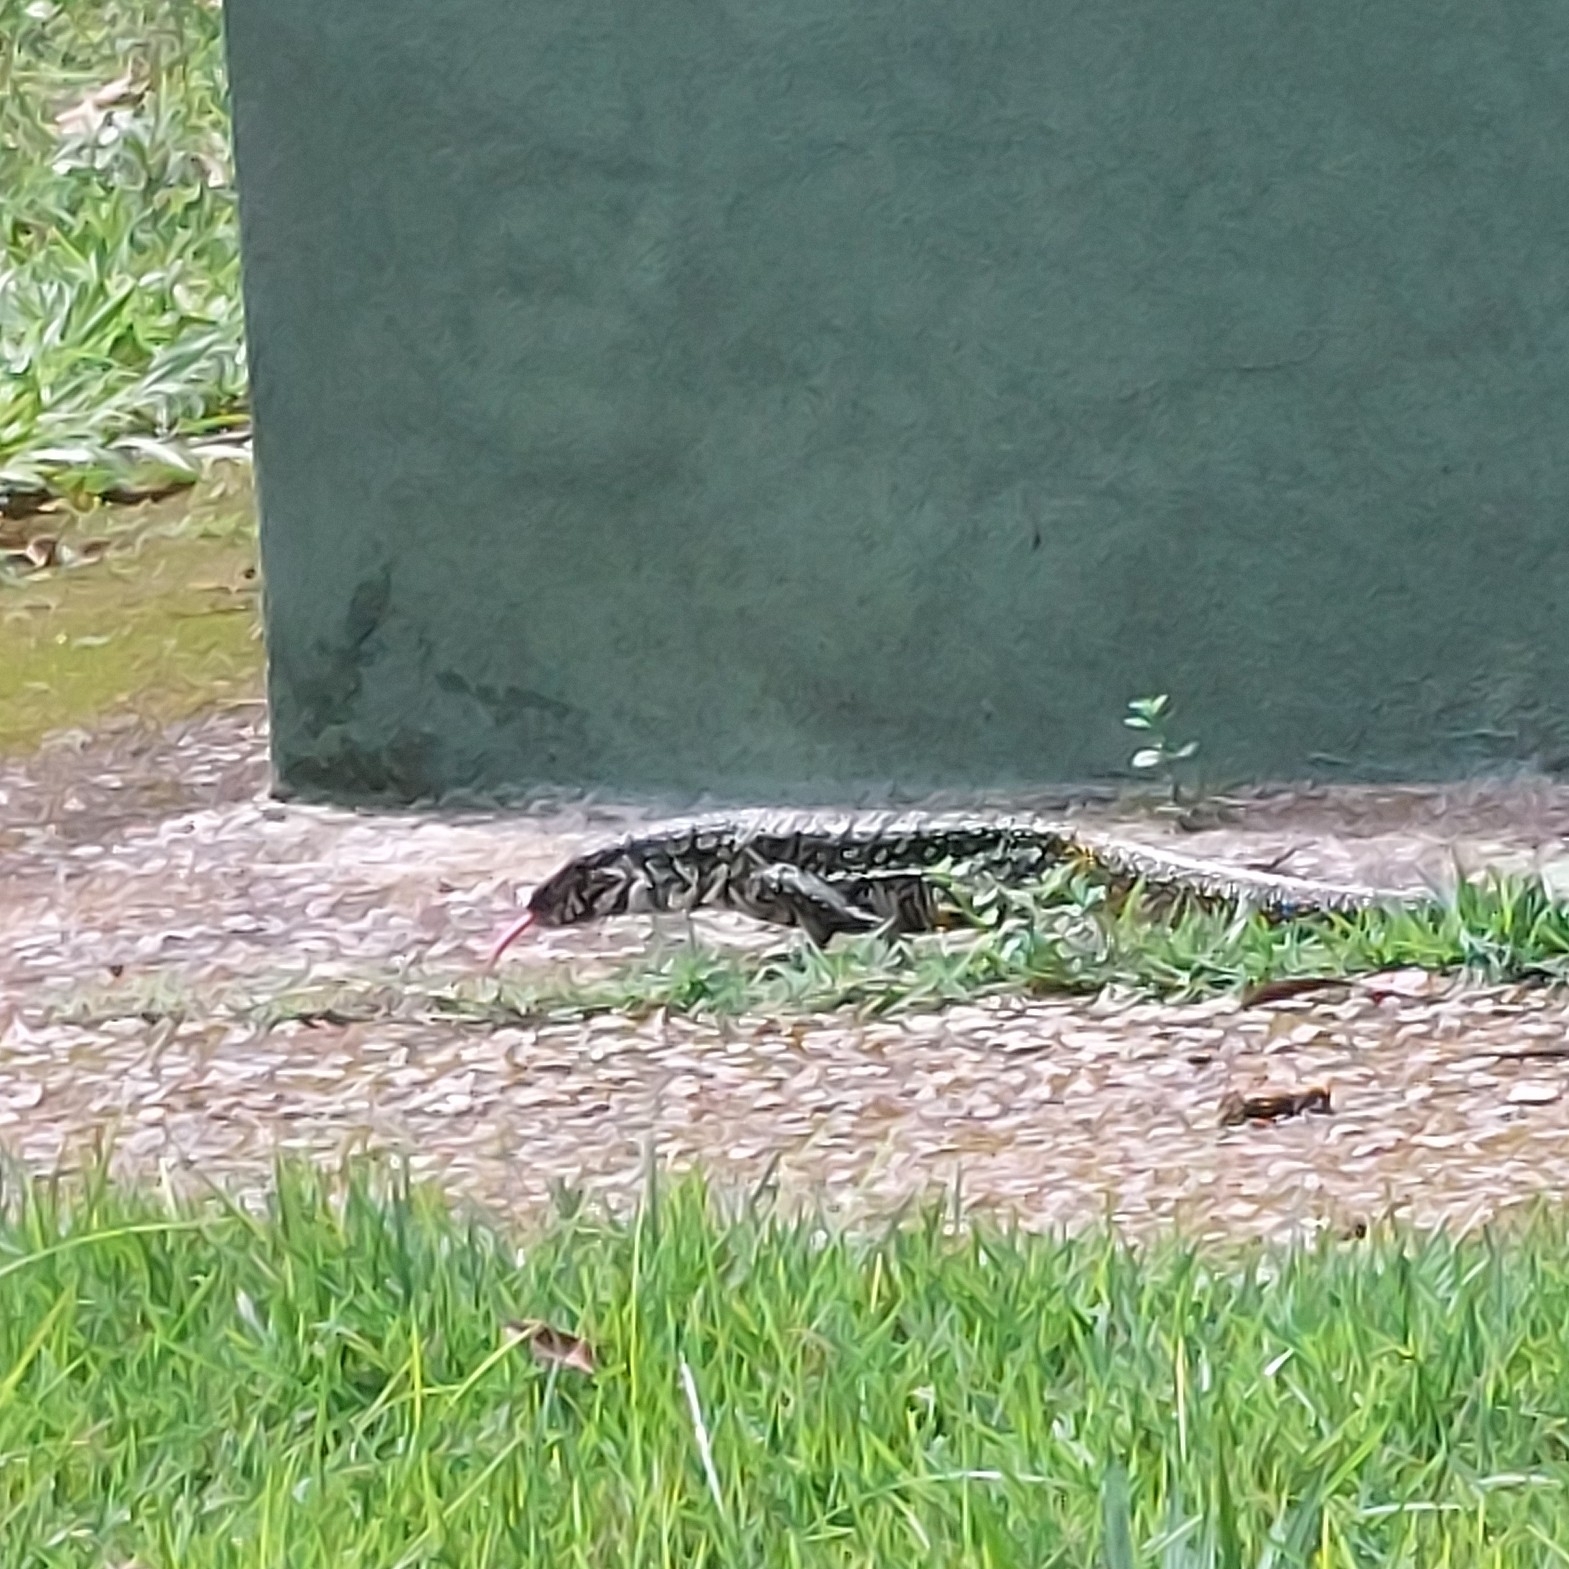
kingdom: Animalia
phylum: Chordata
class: Squamata
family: Teiidae
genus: Salvator
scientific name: Salvator merianae
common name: Argentine black and white tegu
